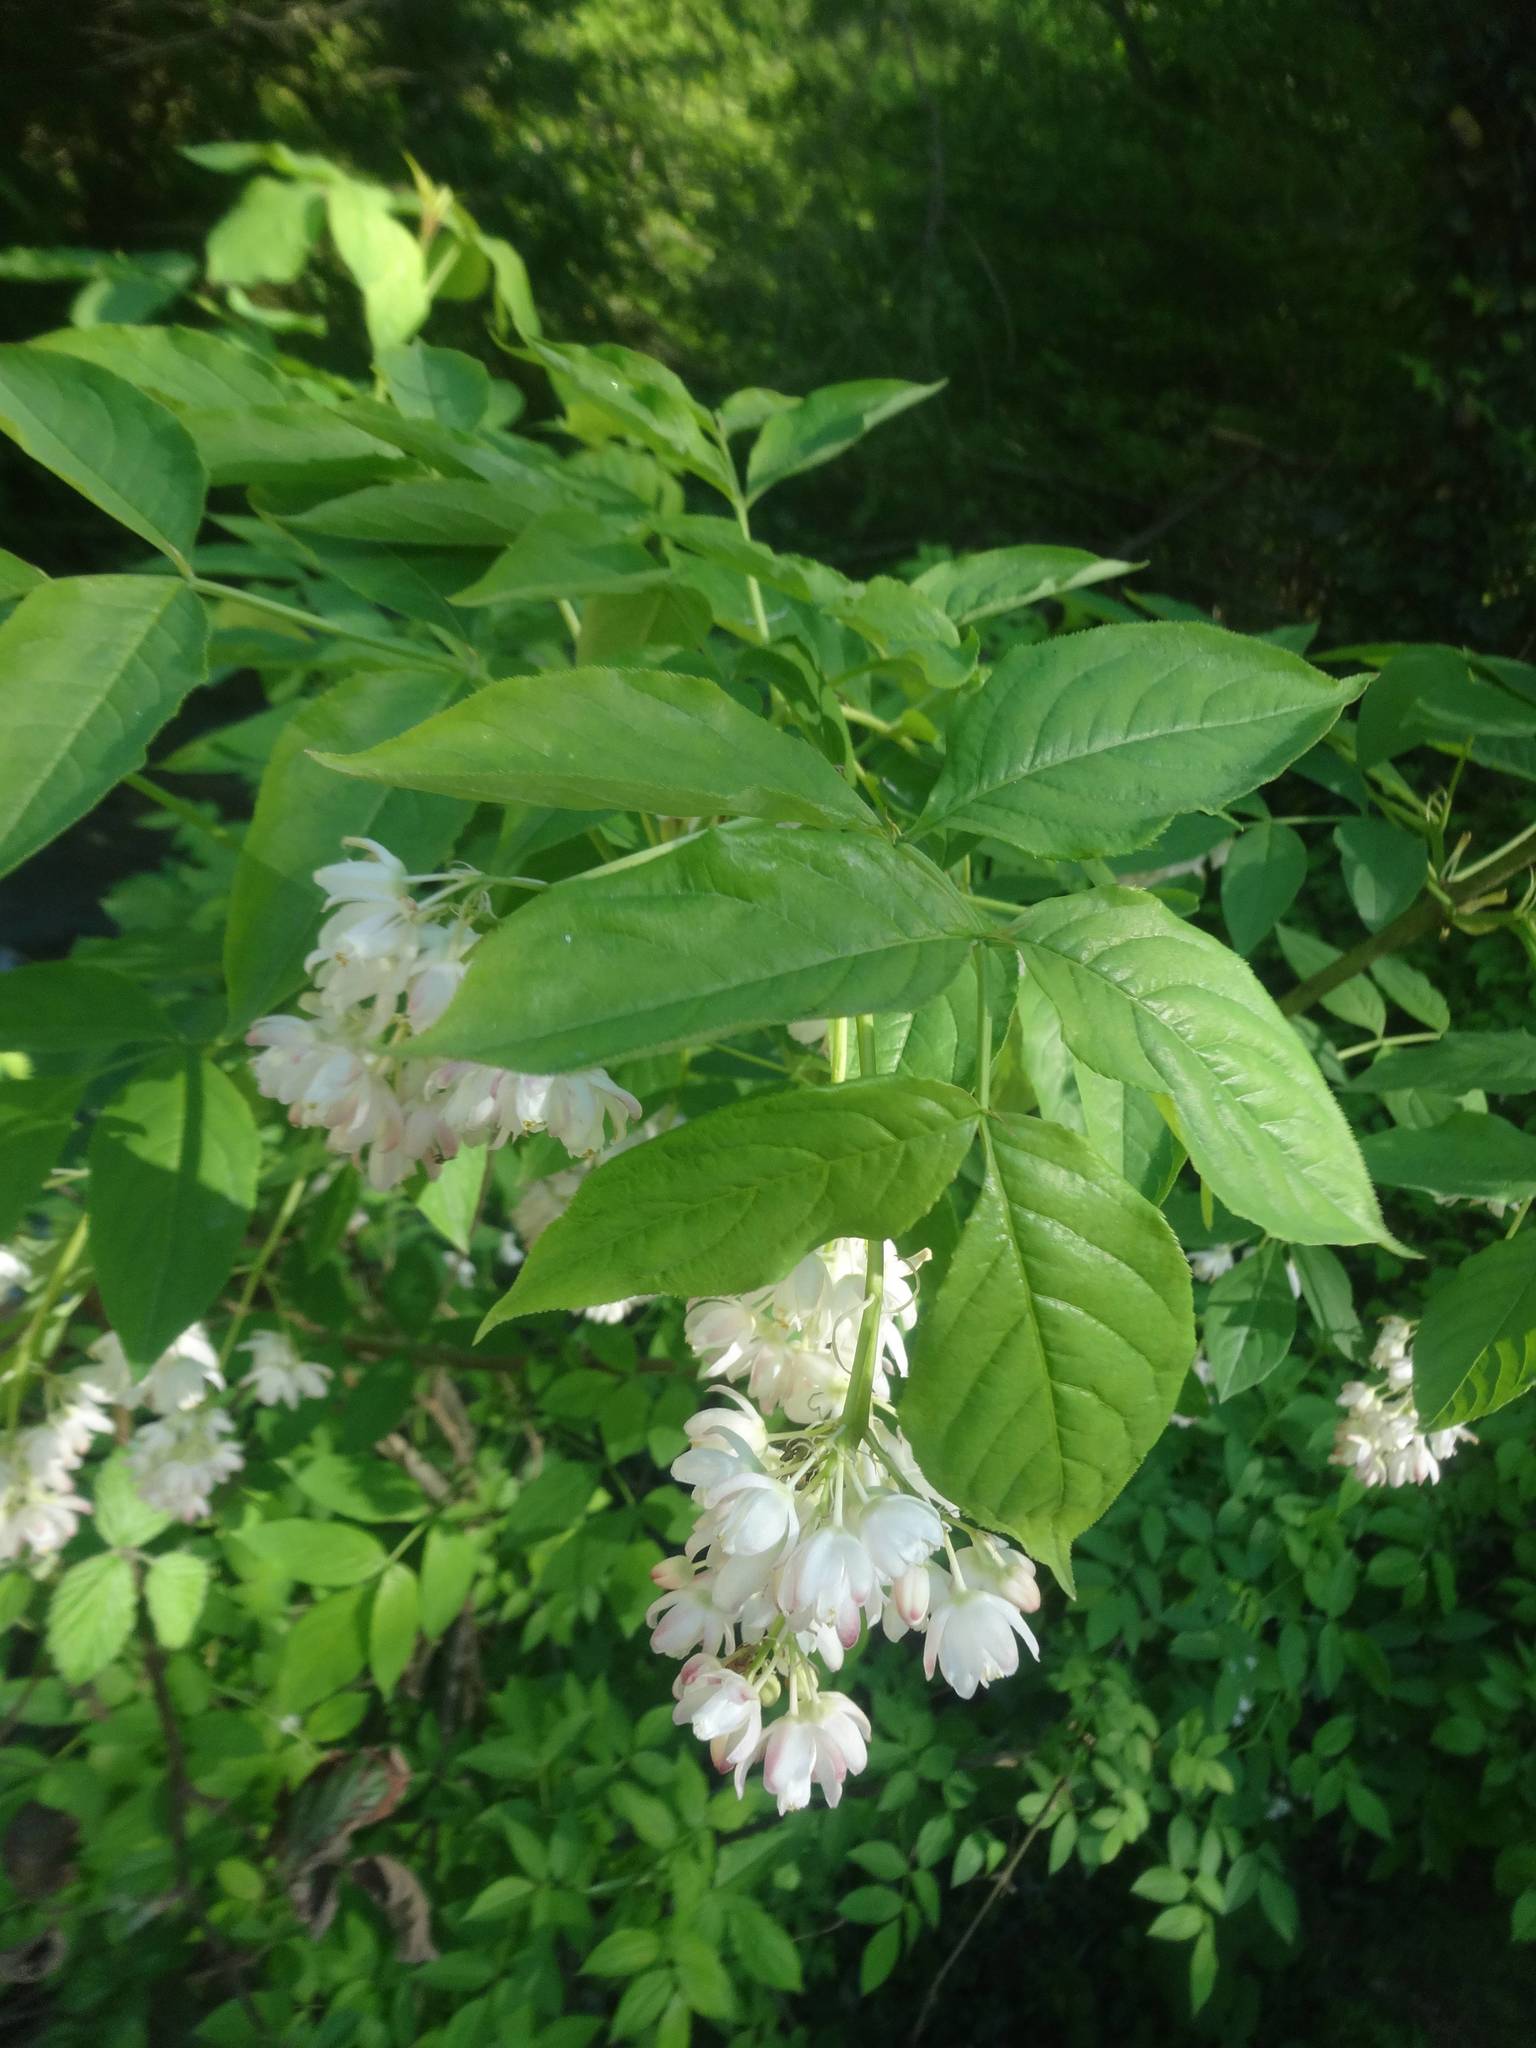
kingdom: Plantae
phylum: Tracheophyta
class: Magnoliopsida
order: Crossosomatales
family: Staphyleaceae
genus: Staphylea
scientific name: Staphylea pinnata
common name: Bladdernut
